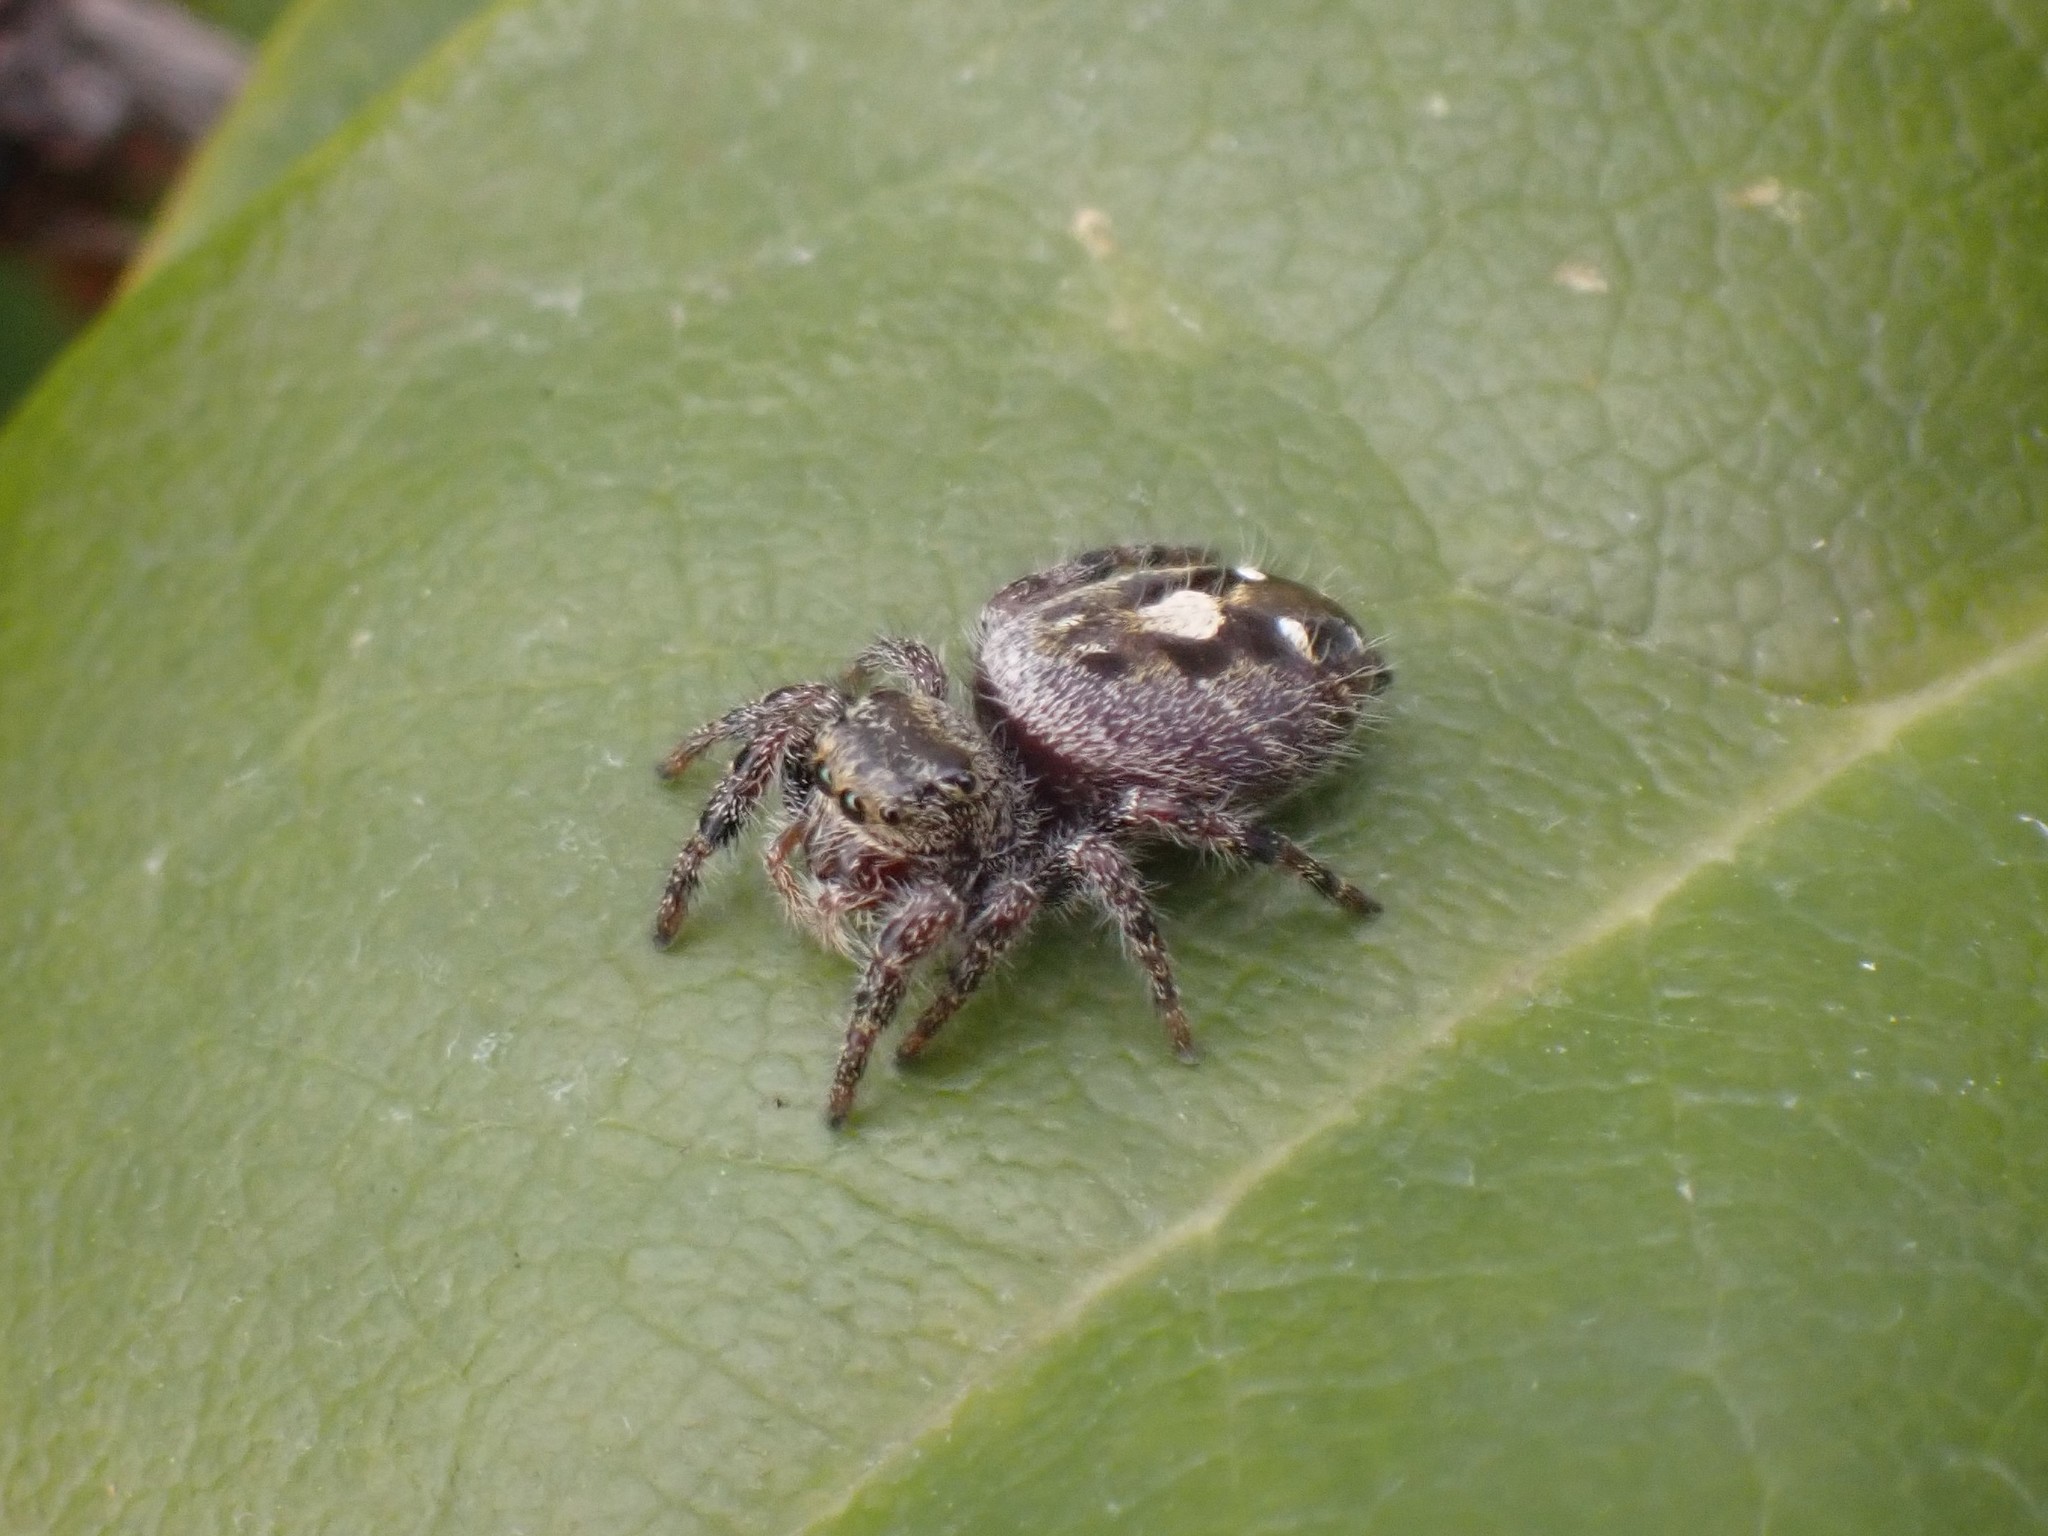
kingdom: Animalia
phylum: Arthropoda
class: Arachnida
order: Araneae
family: Salticidae
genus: Phidippus
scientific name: Phidippus audax
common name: Bold jumper
